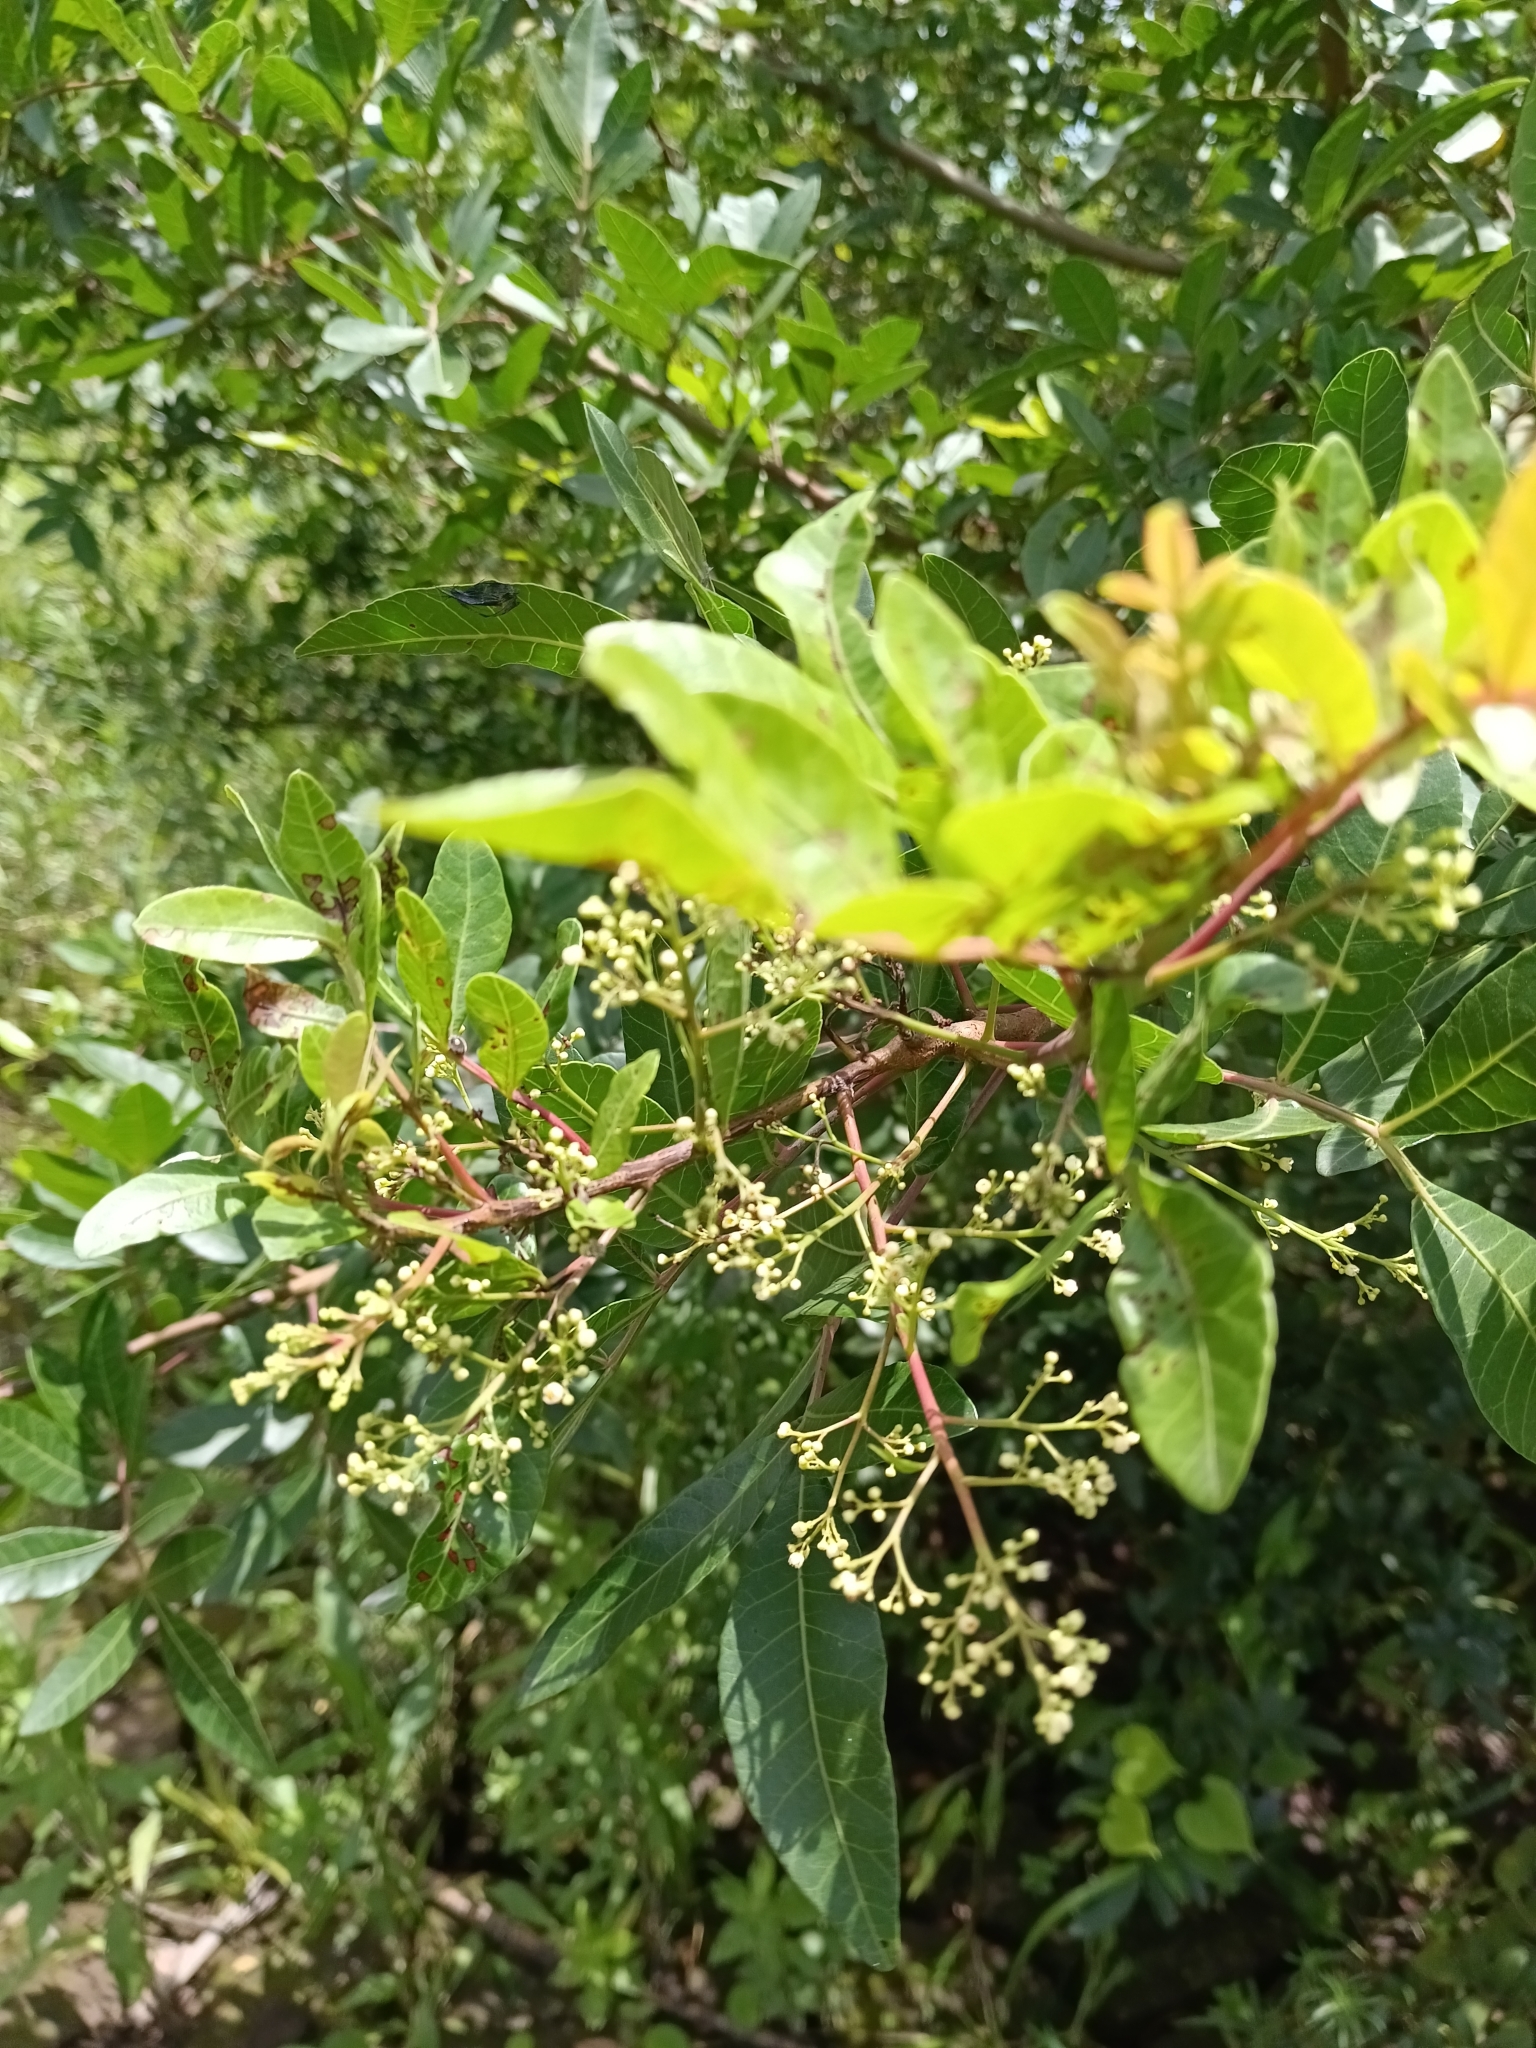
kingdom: Plantae
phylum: Tracheophyta
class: Magnoliopsida
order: Sapindales
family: Anacardiaceae
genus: Schinus
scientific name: Schinus terebinthifolia
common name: Brazilian peppertree
